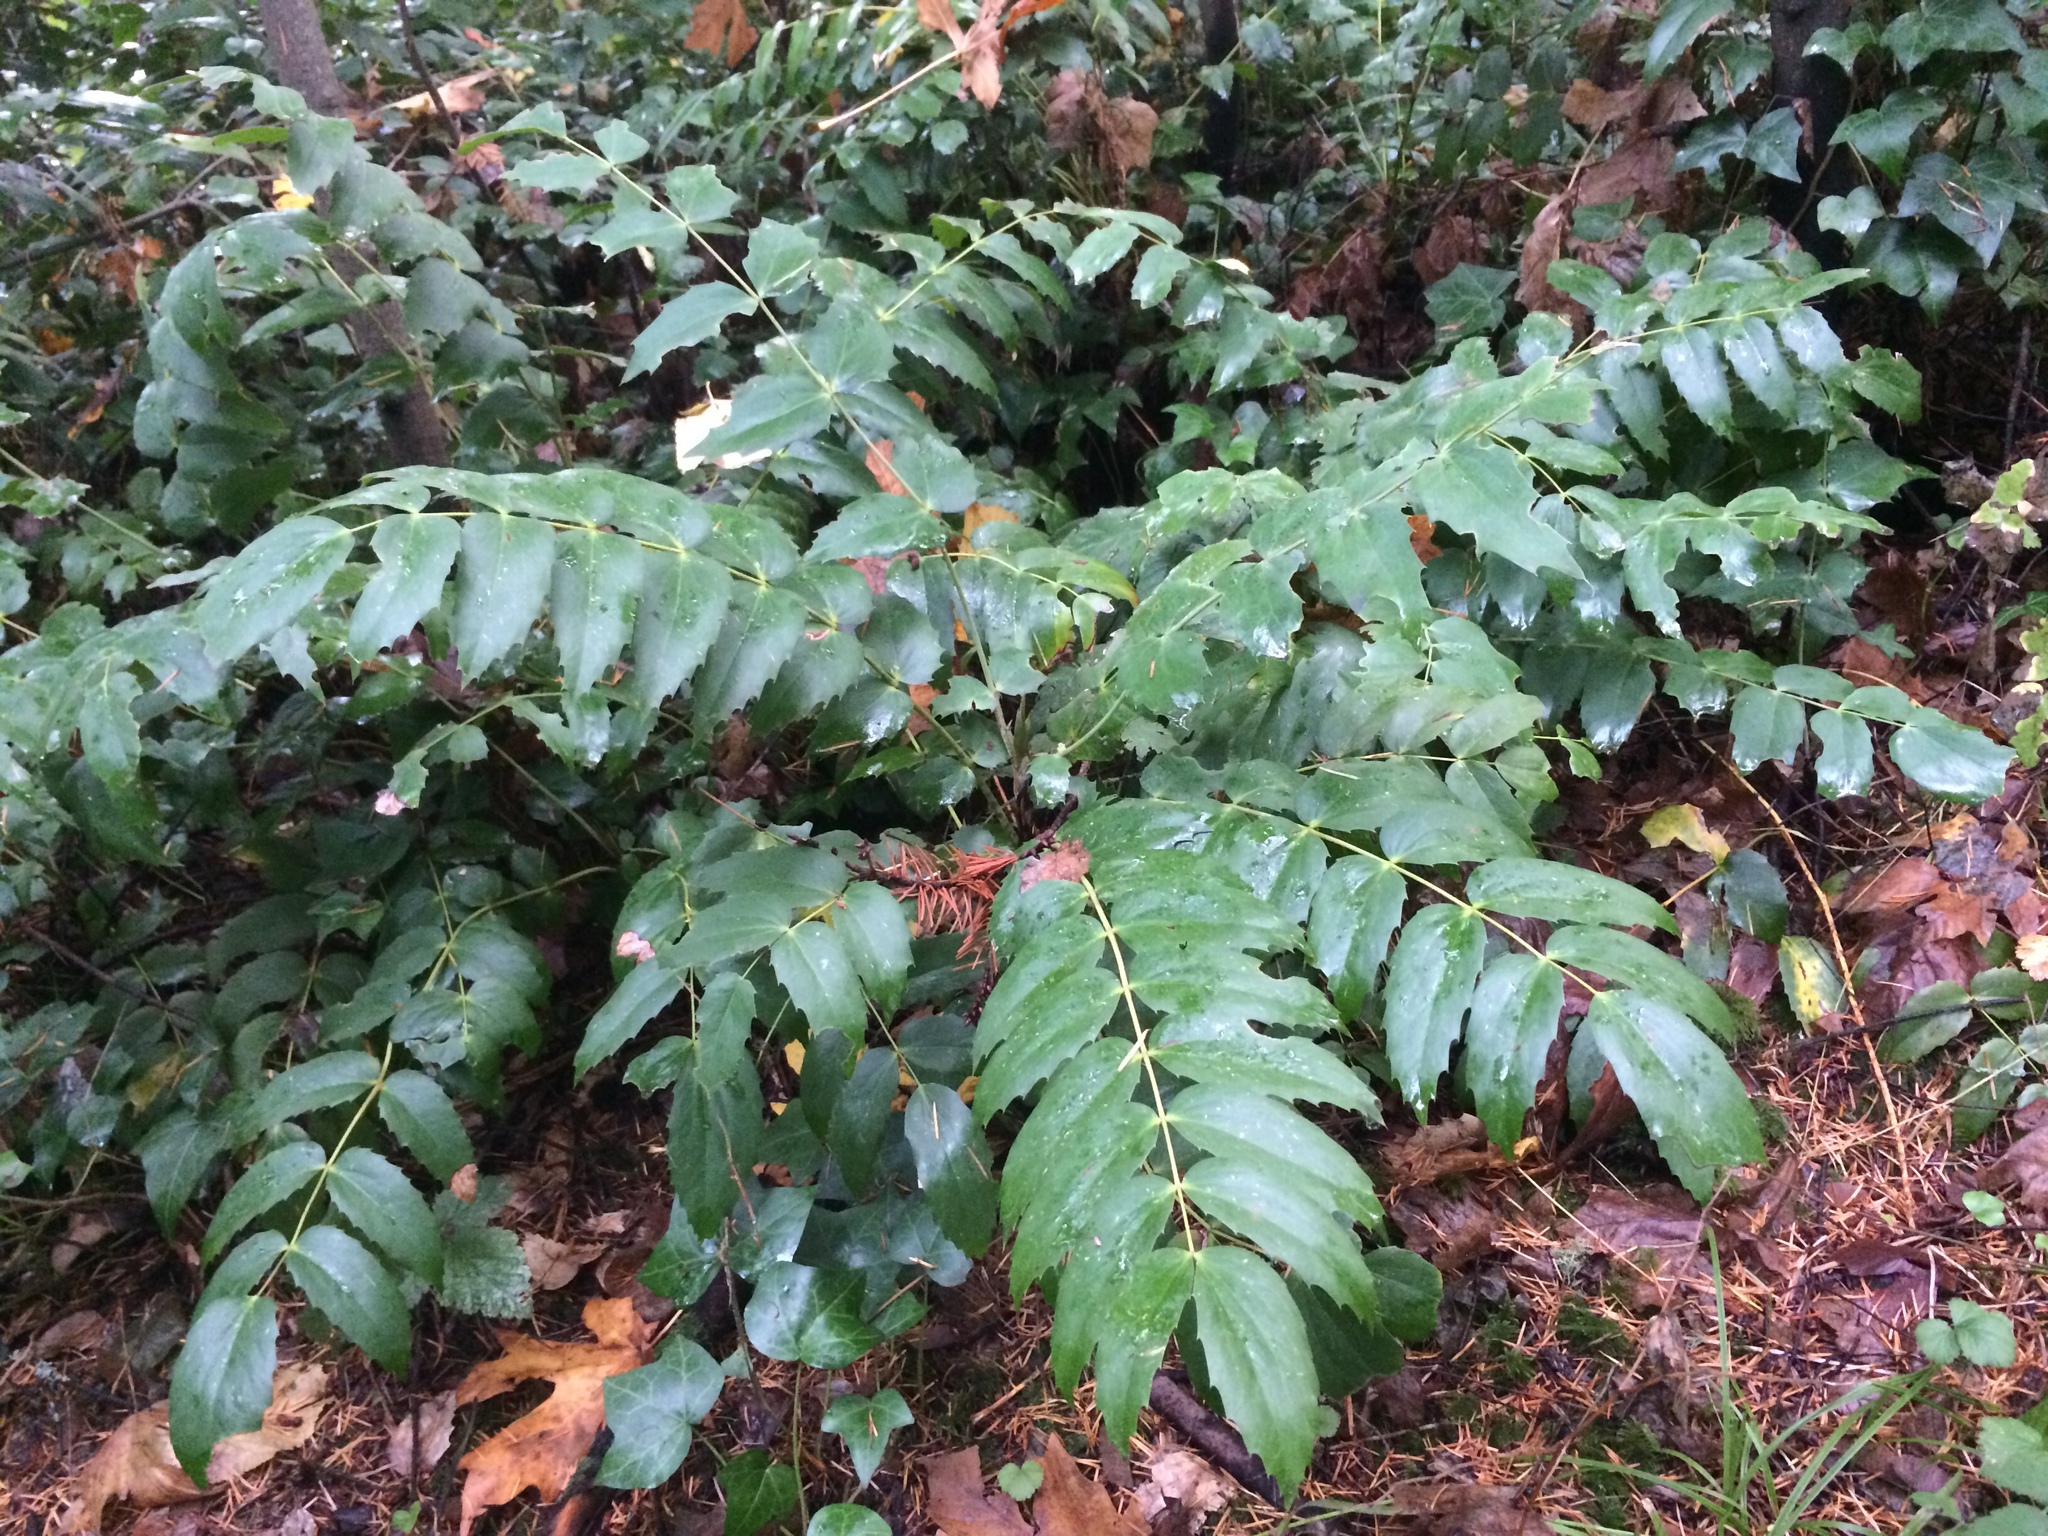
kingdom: Plantae
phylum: Tracheophyta
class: Magnoliopsida
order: Ranunculales
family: Berberidaceae
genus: Mahonia
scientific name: Mahonia nervosa
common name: Cascade oregon-grape
